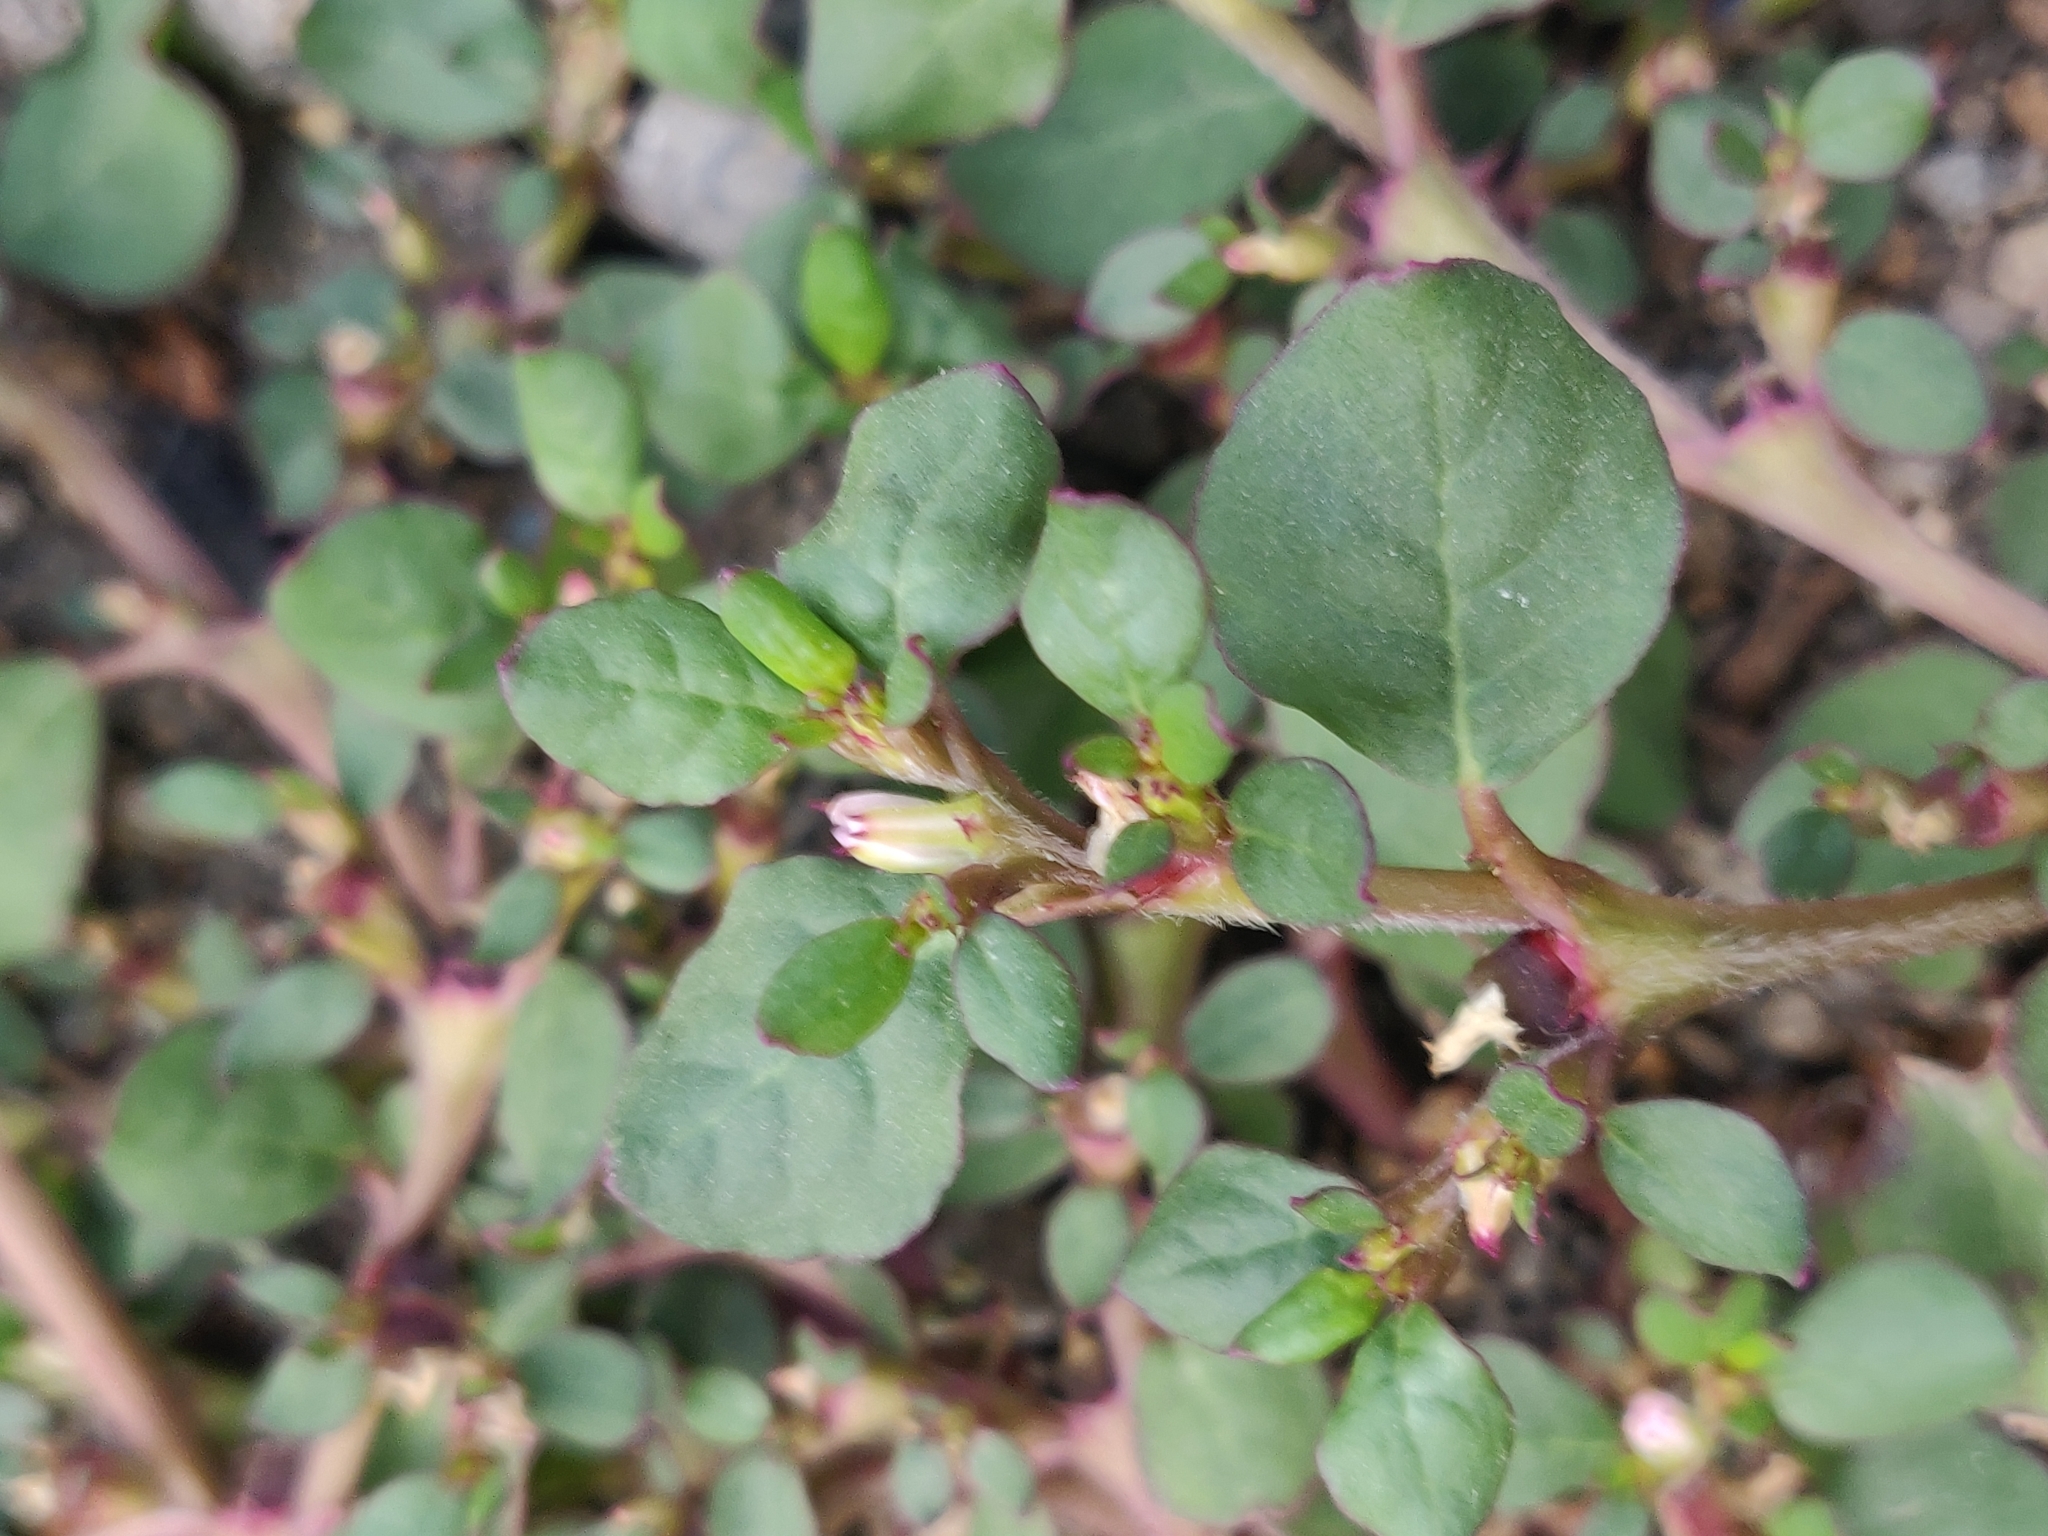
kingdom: Plantae
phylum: Tracheophyta
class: Magnoliopsida
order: Caryophyllales
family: Aizoaceae
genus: Trianthema
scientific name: Trianthema portulacastrum
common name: Desert horsepurslane
